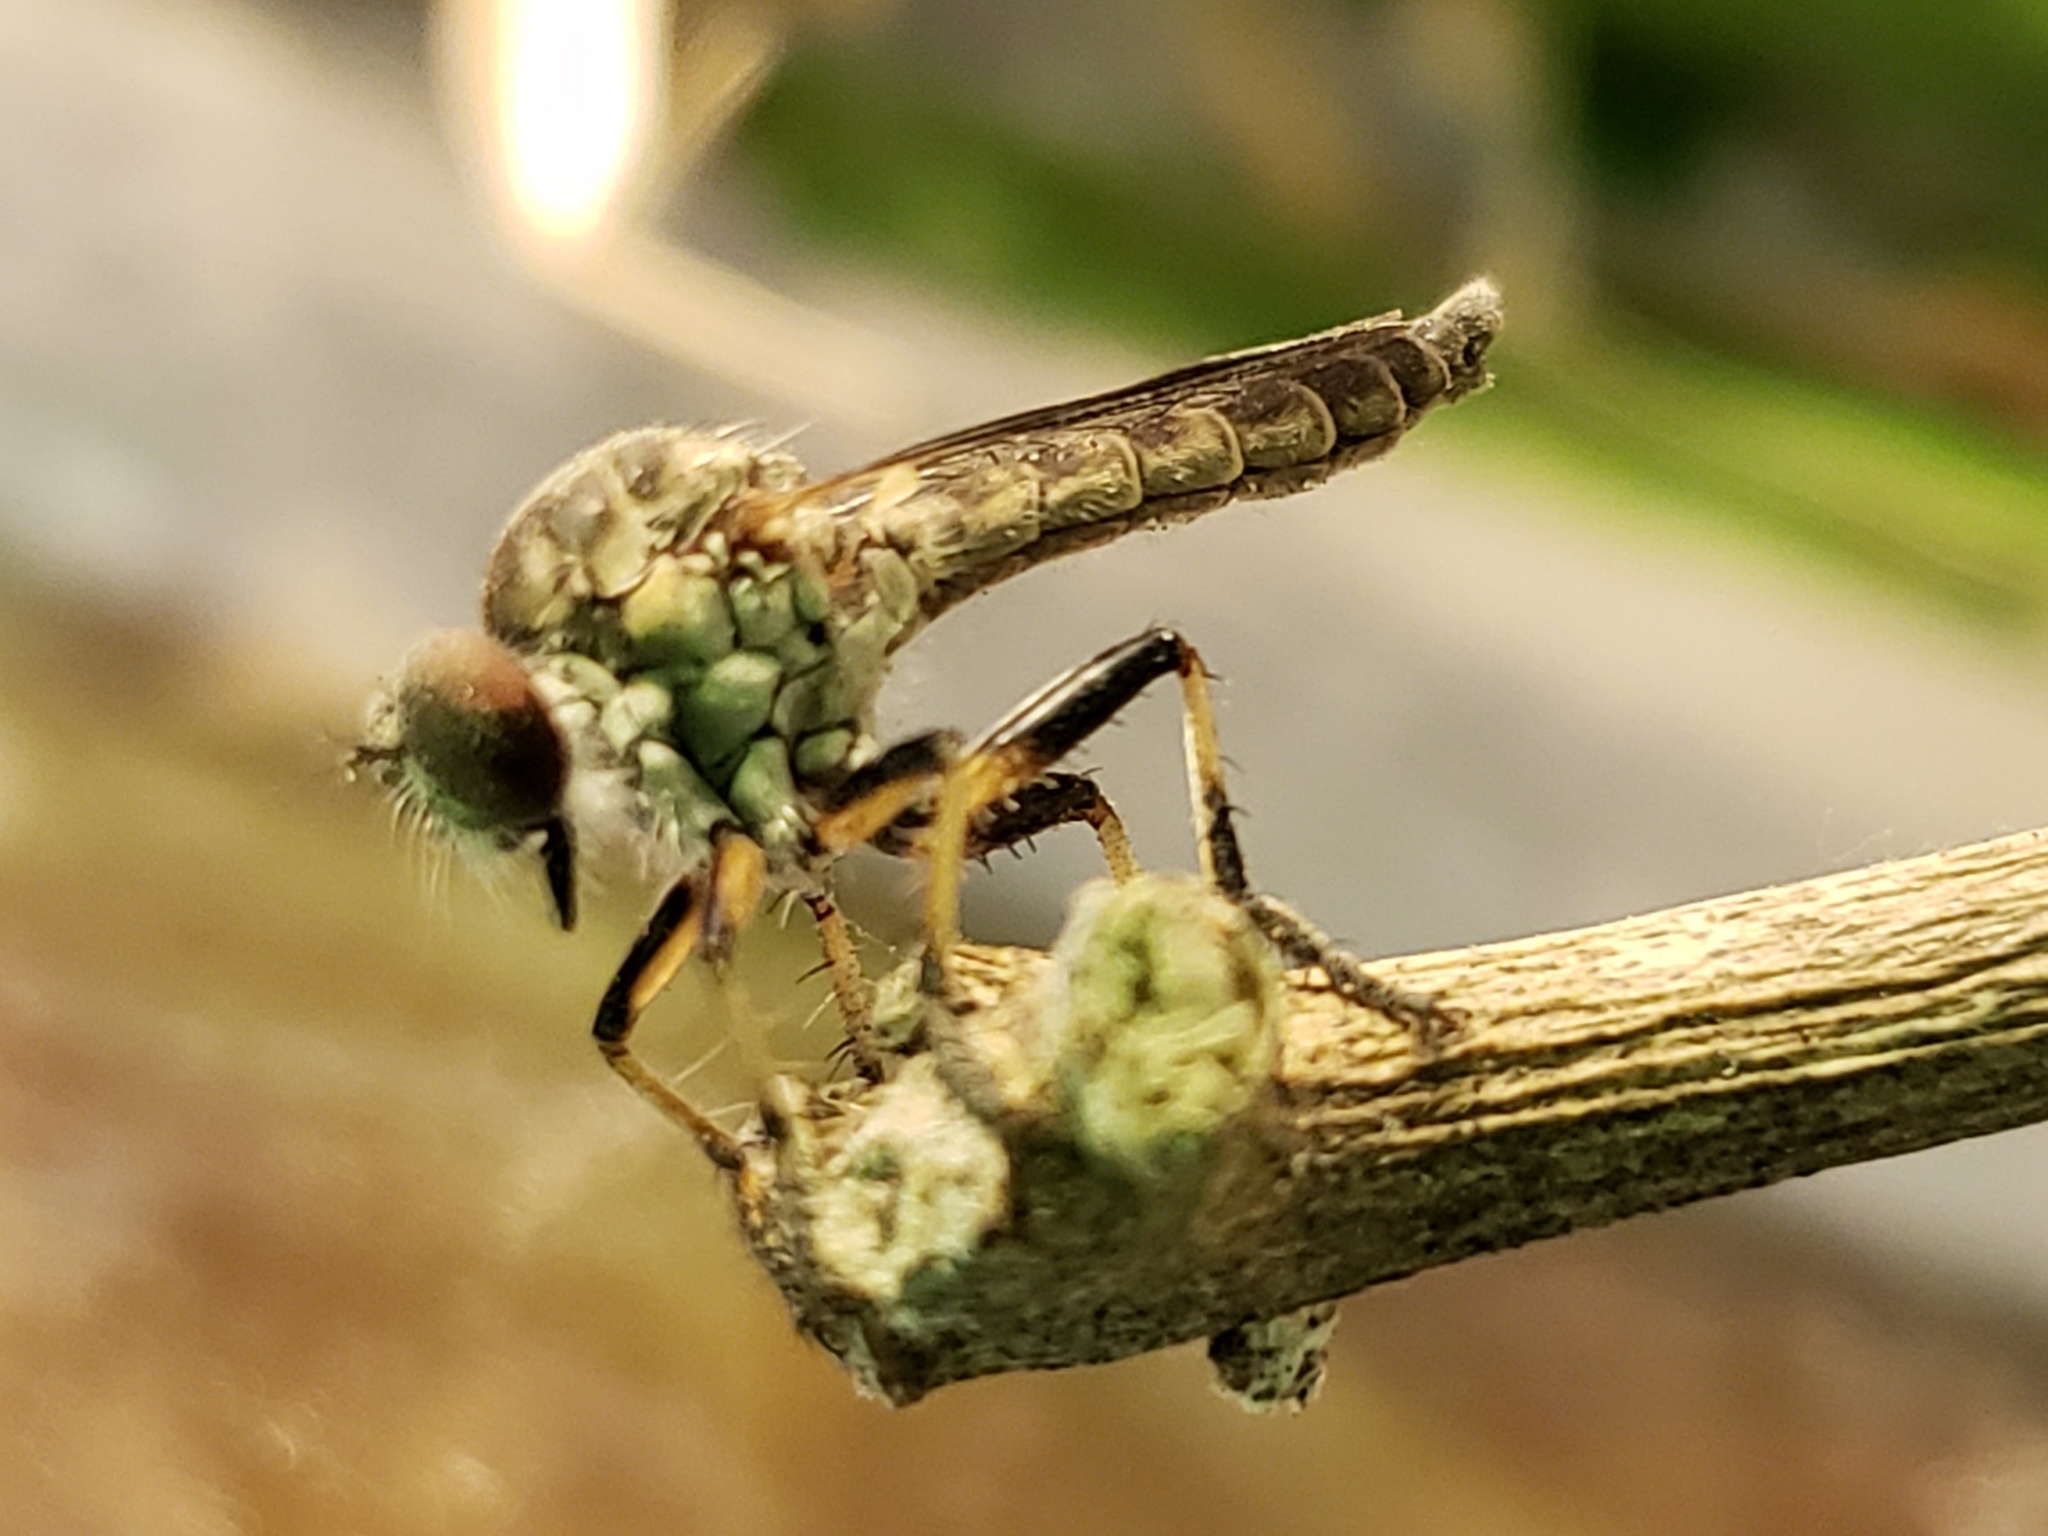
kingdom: Animalia
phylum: Arthropoda
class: Insecta
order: Diptera
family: Asilidae
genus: Ommatius
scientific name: Ommatius floridensis
